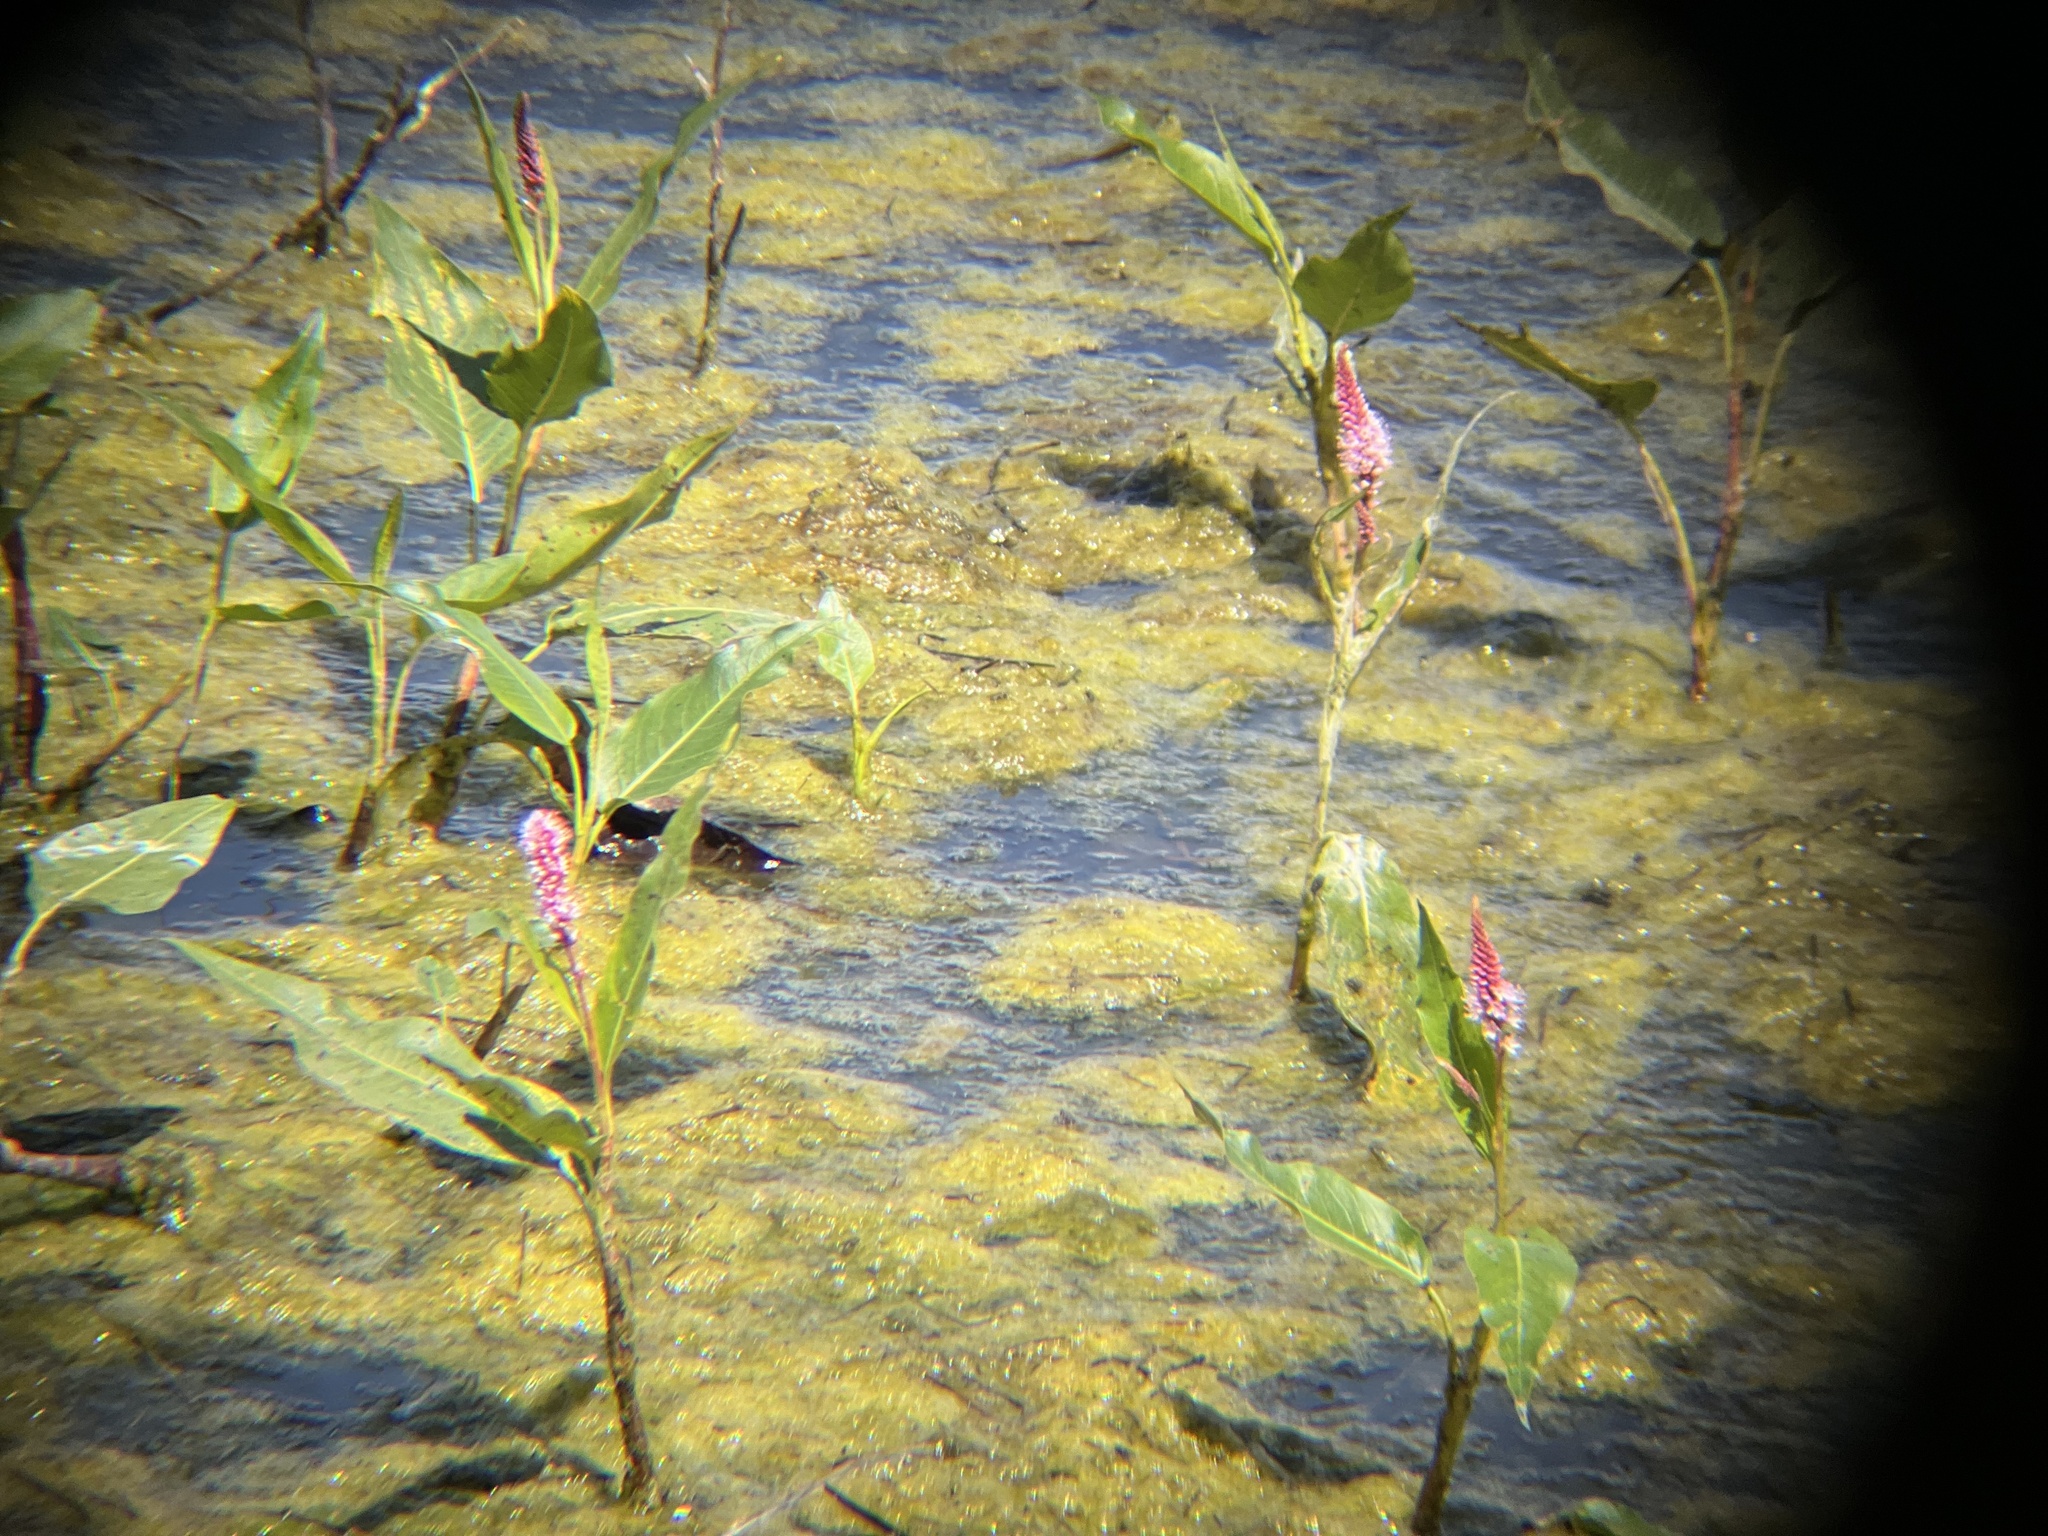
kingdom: Plantae
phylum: Tracheophyta
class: Magnoliopsida
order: Caryophyllales
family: Polygonaceae
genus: Persicaria
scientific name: Persicaria amphibia
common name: Amphibious bistort
